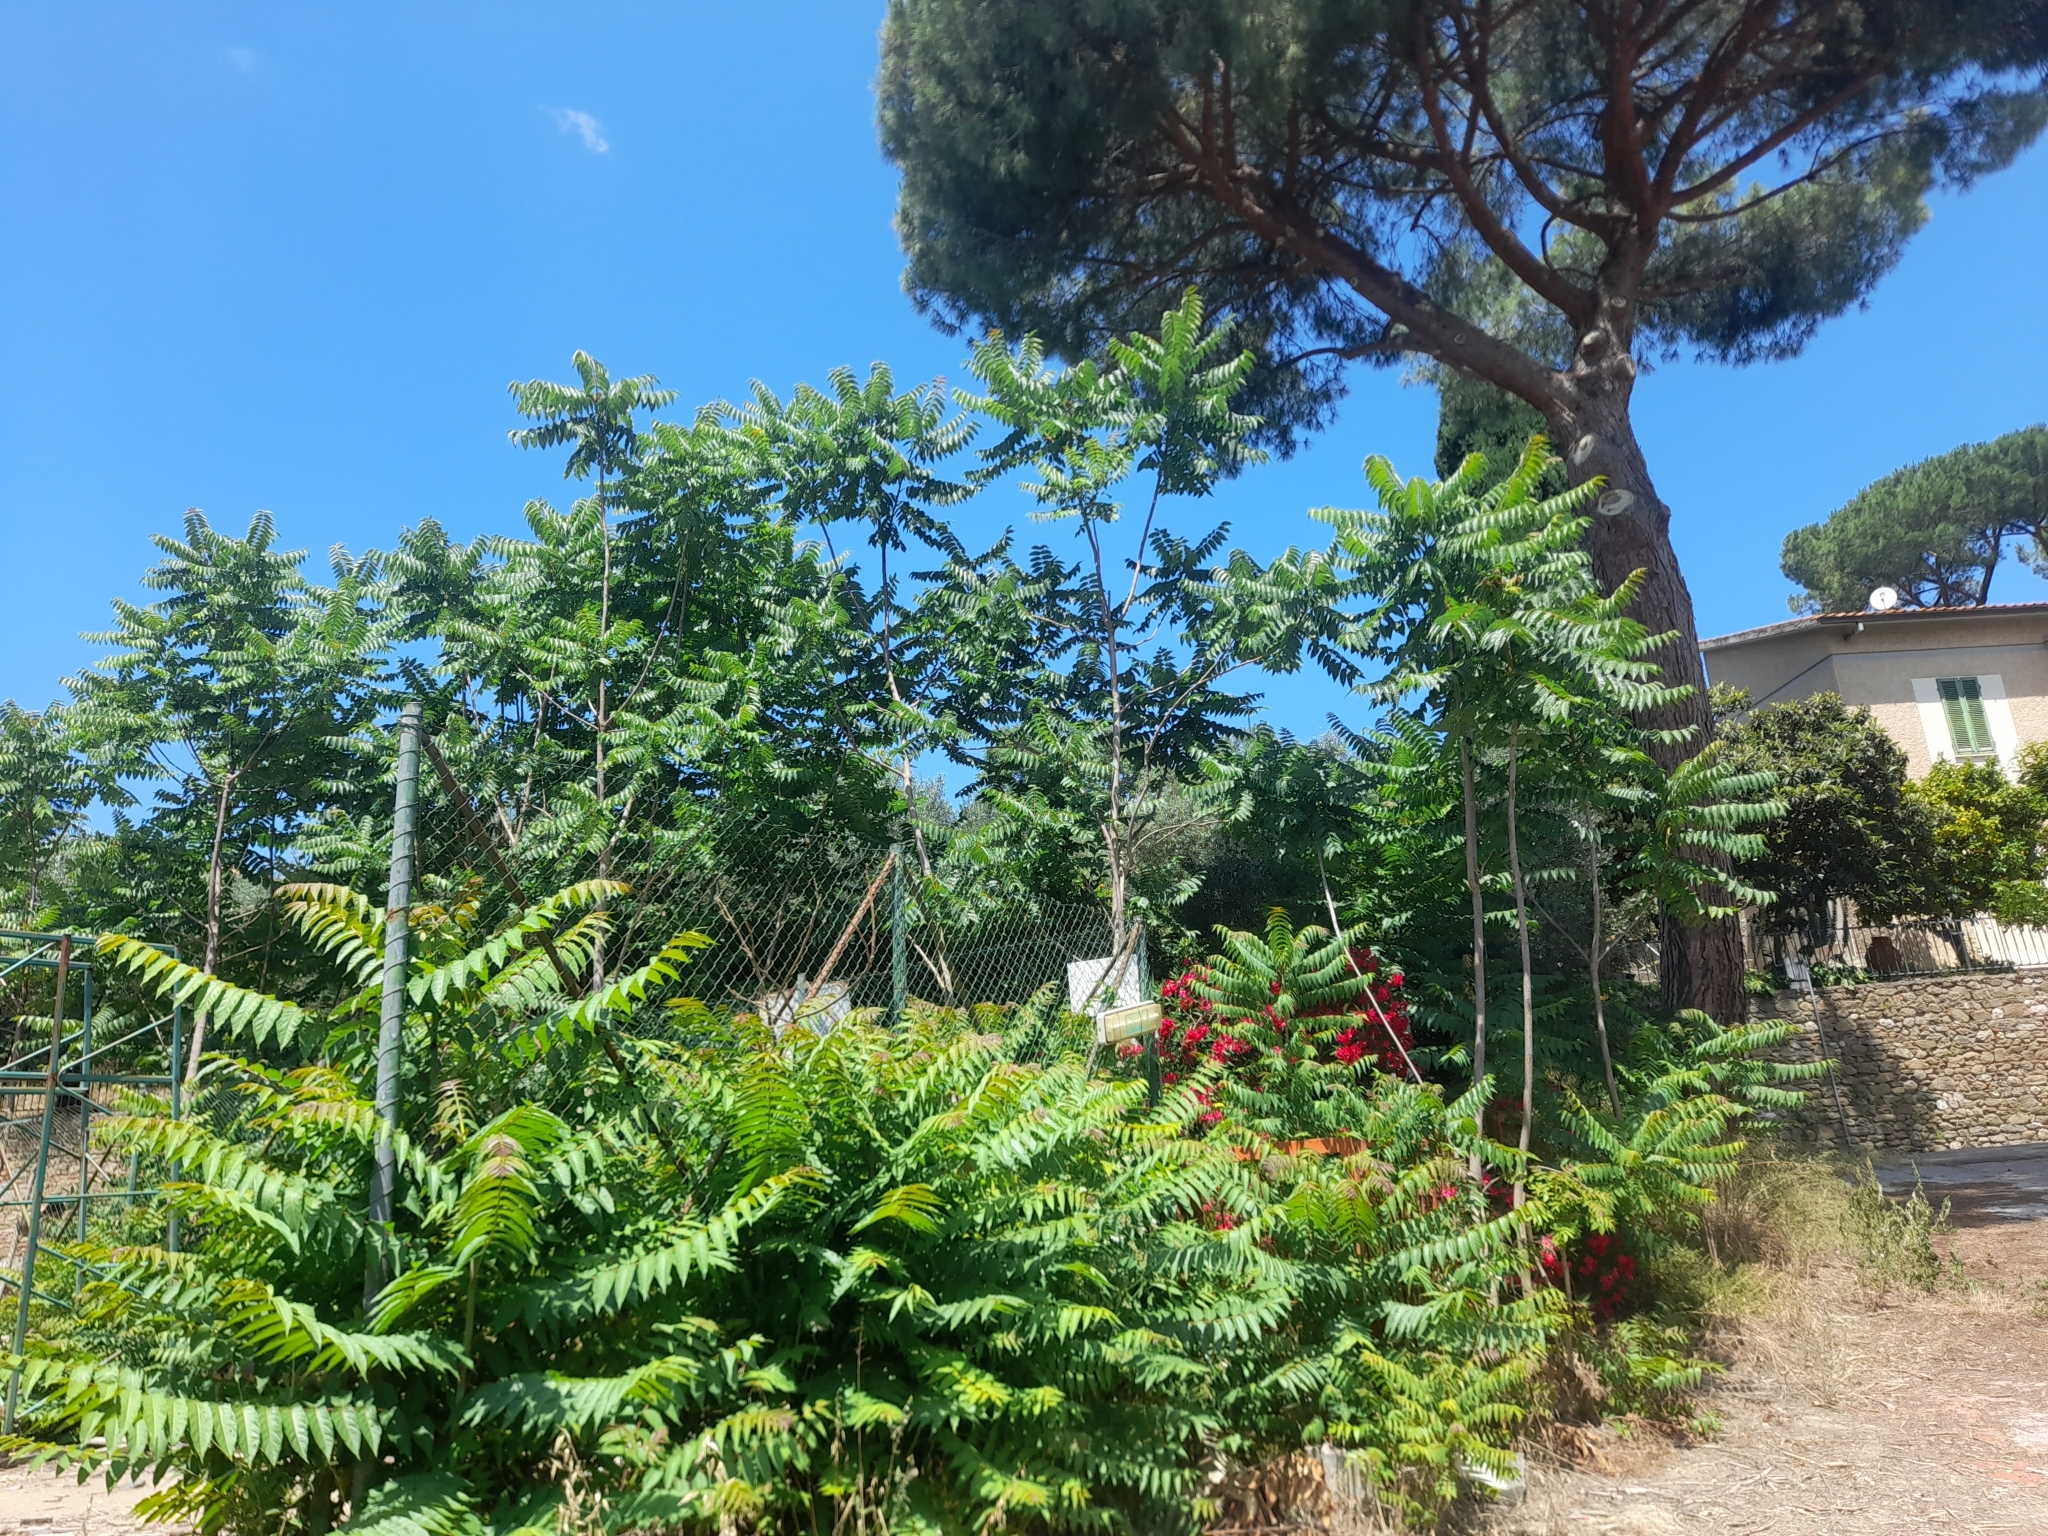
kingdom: Plantae
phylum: Tracheophyta
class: Magnoliopsida
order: Sapindales
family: Simaroubaceae
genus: Ailanthus
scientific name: Ailanthus altissima
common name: Tree-of-heaven
